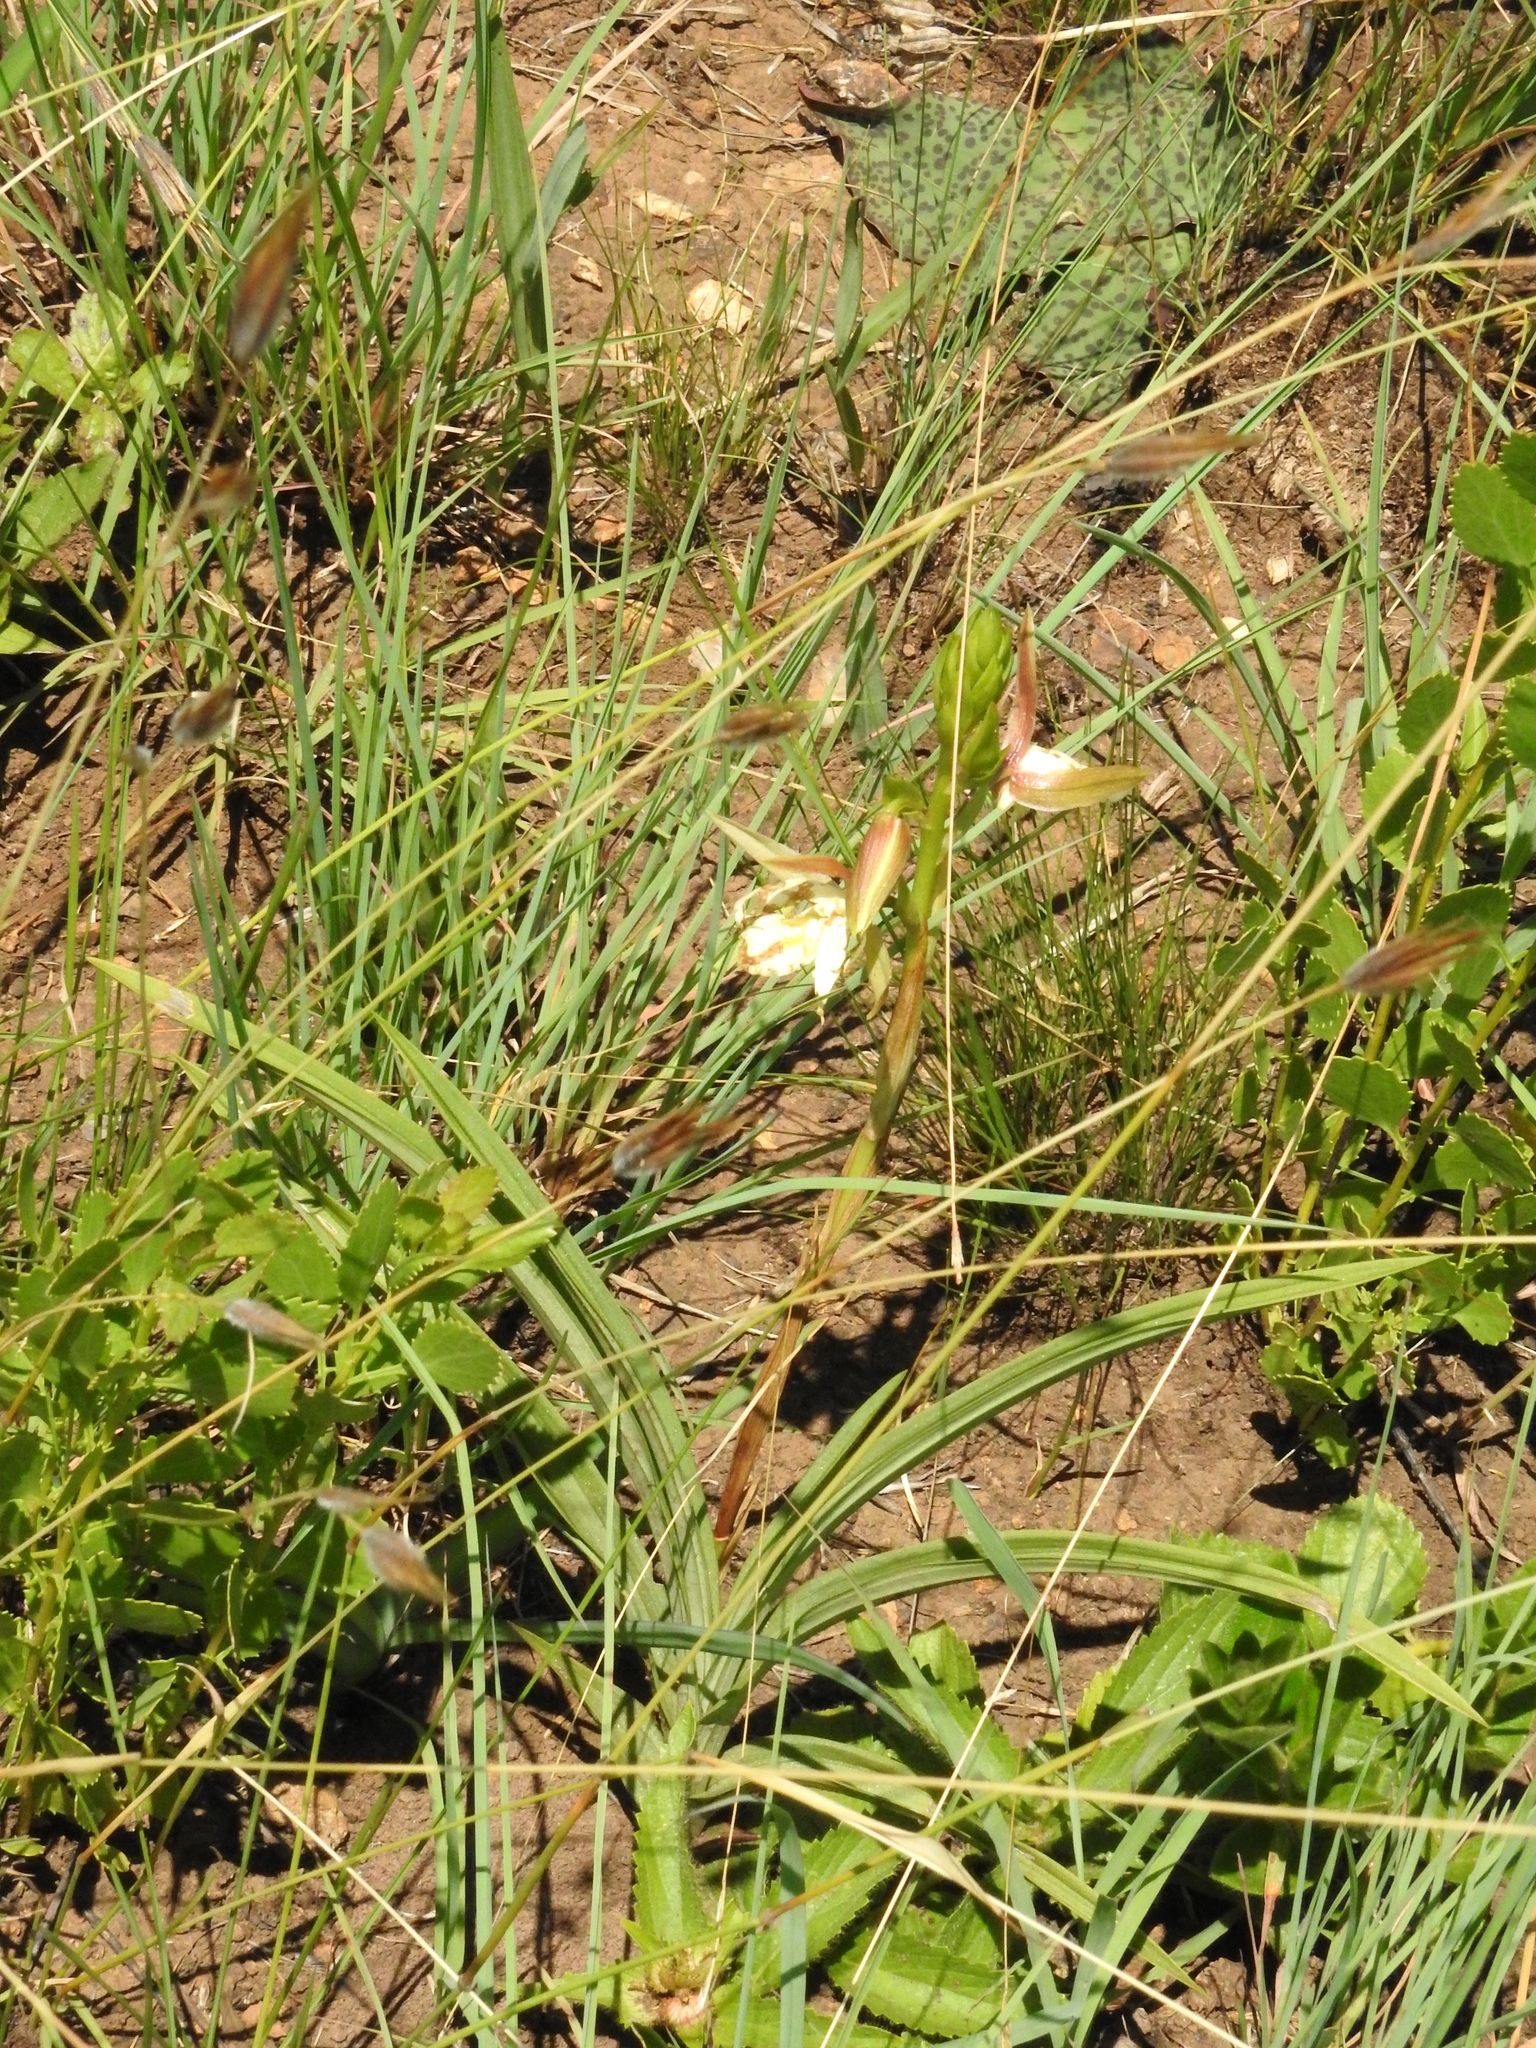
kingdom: Plantae
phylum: Tracheophyta
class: Liliopsida
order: Asparagales
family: Orchidaceae
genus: Eulophia
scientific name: Eulophia ovalis
